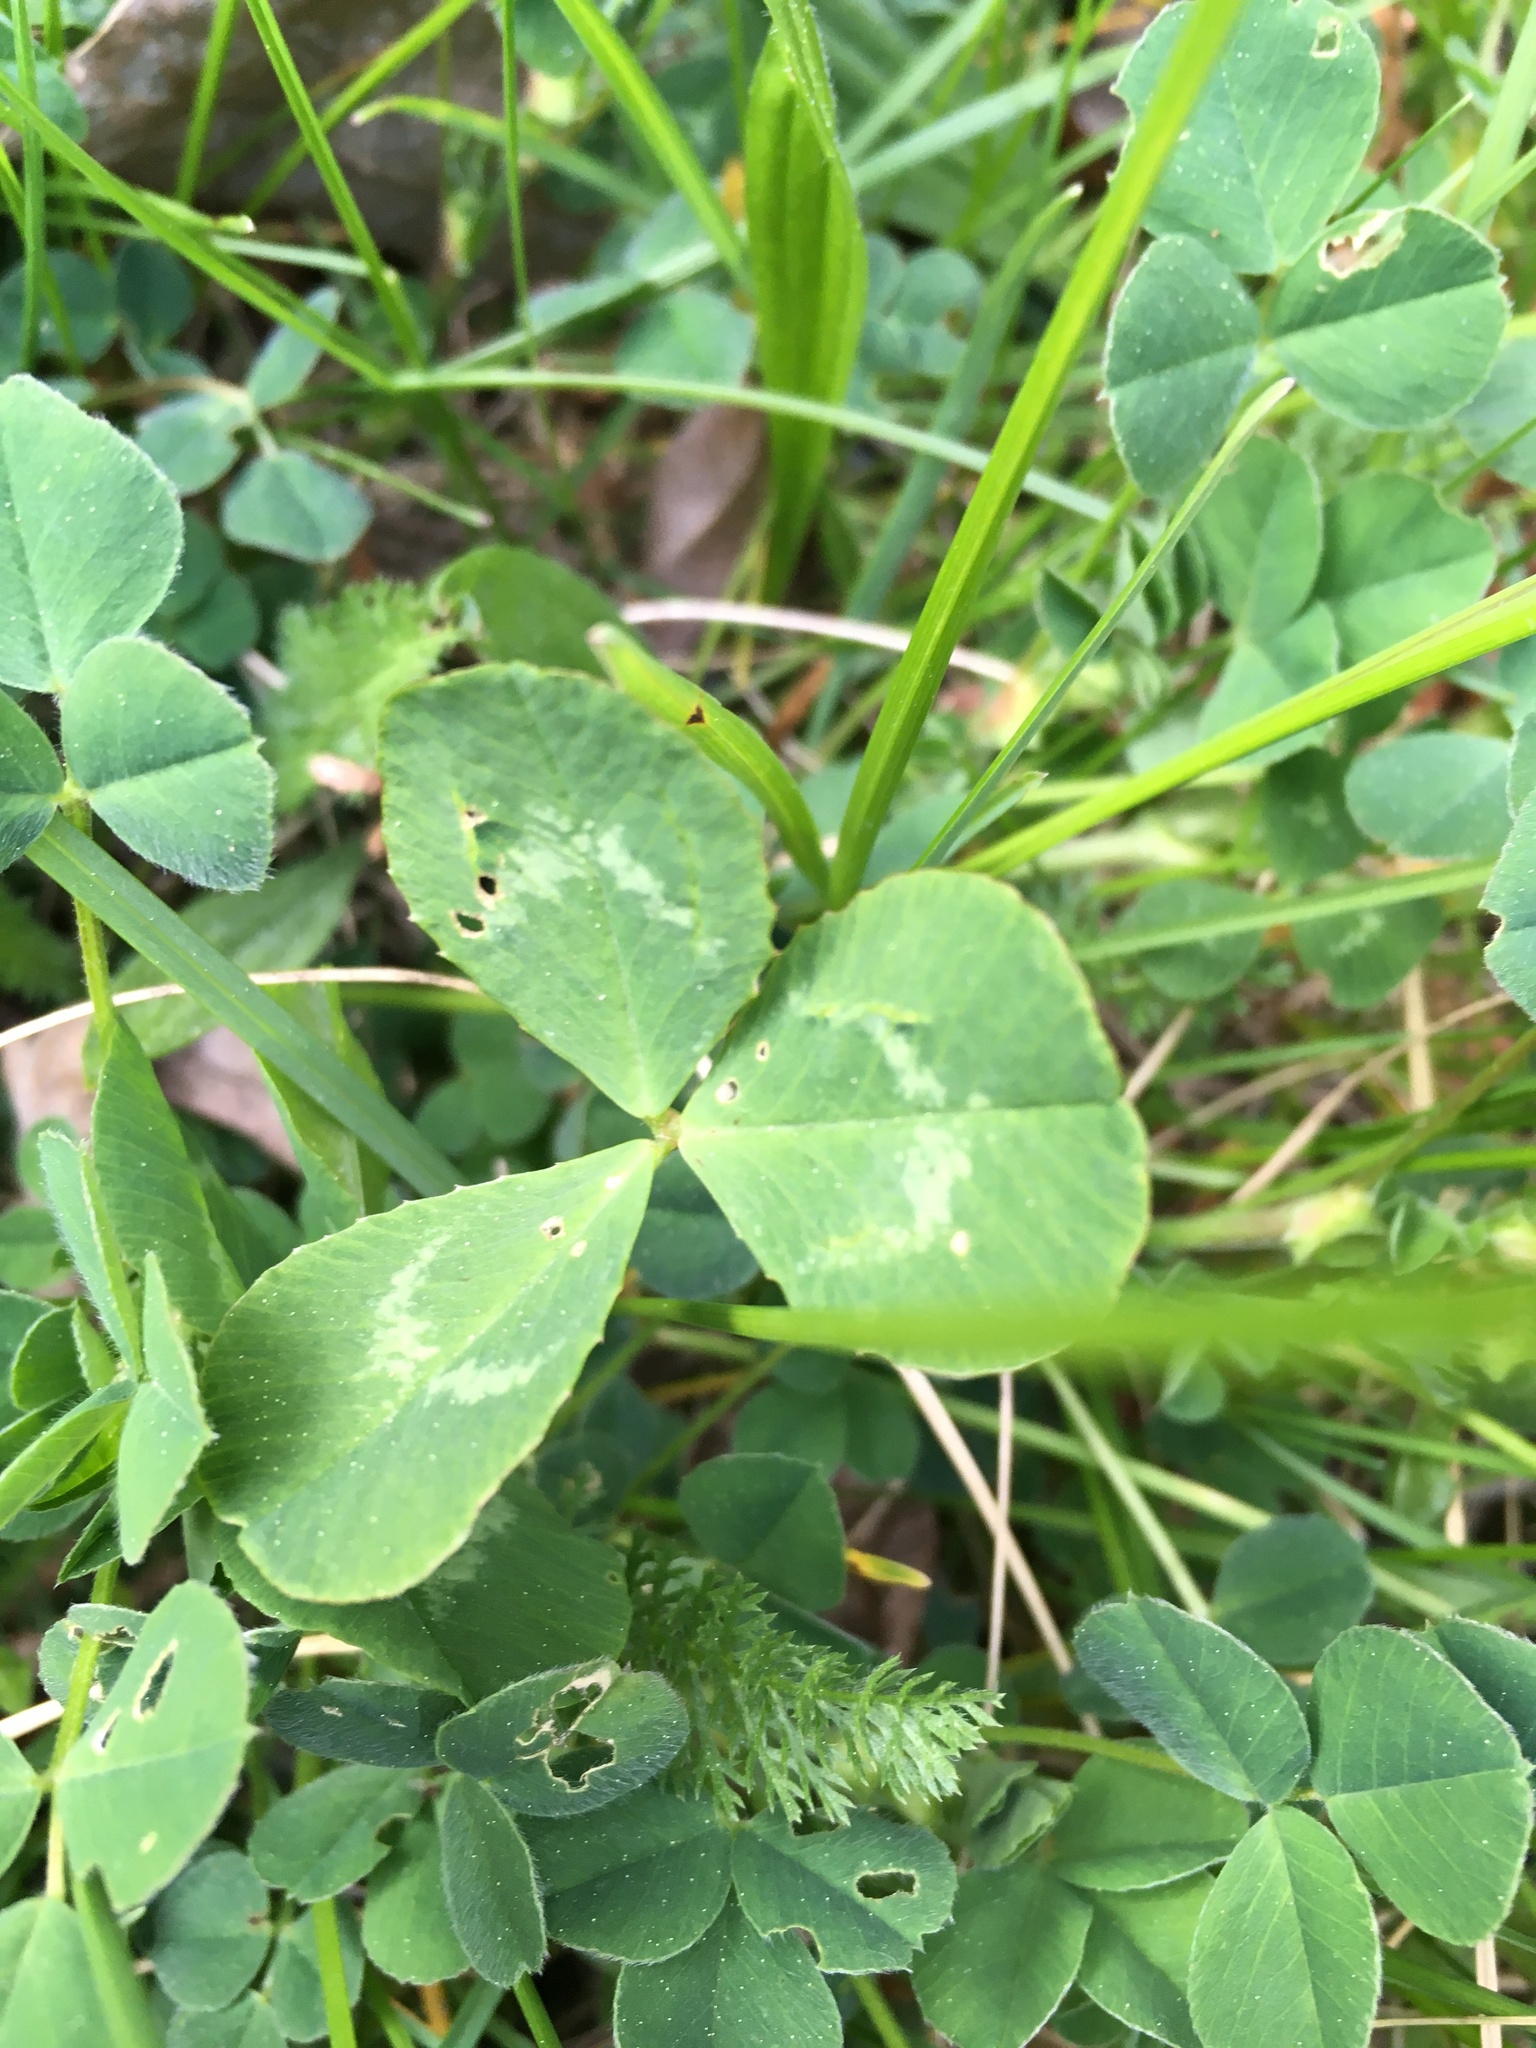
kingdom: Plantae
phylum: Tracheophyta
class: Magnoliopsida
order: Fabales
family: Fabaceae
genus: Trifolium
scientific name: Trifolium repens
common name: White clover
